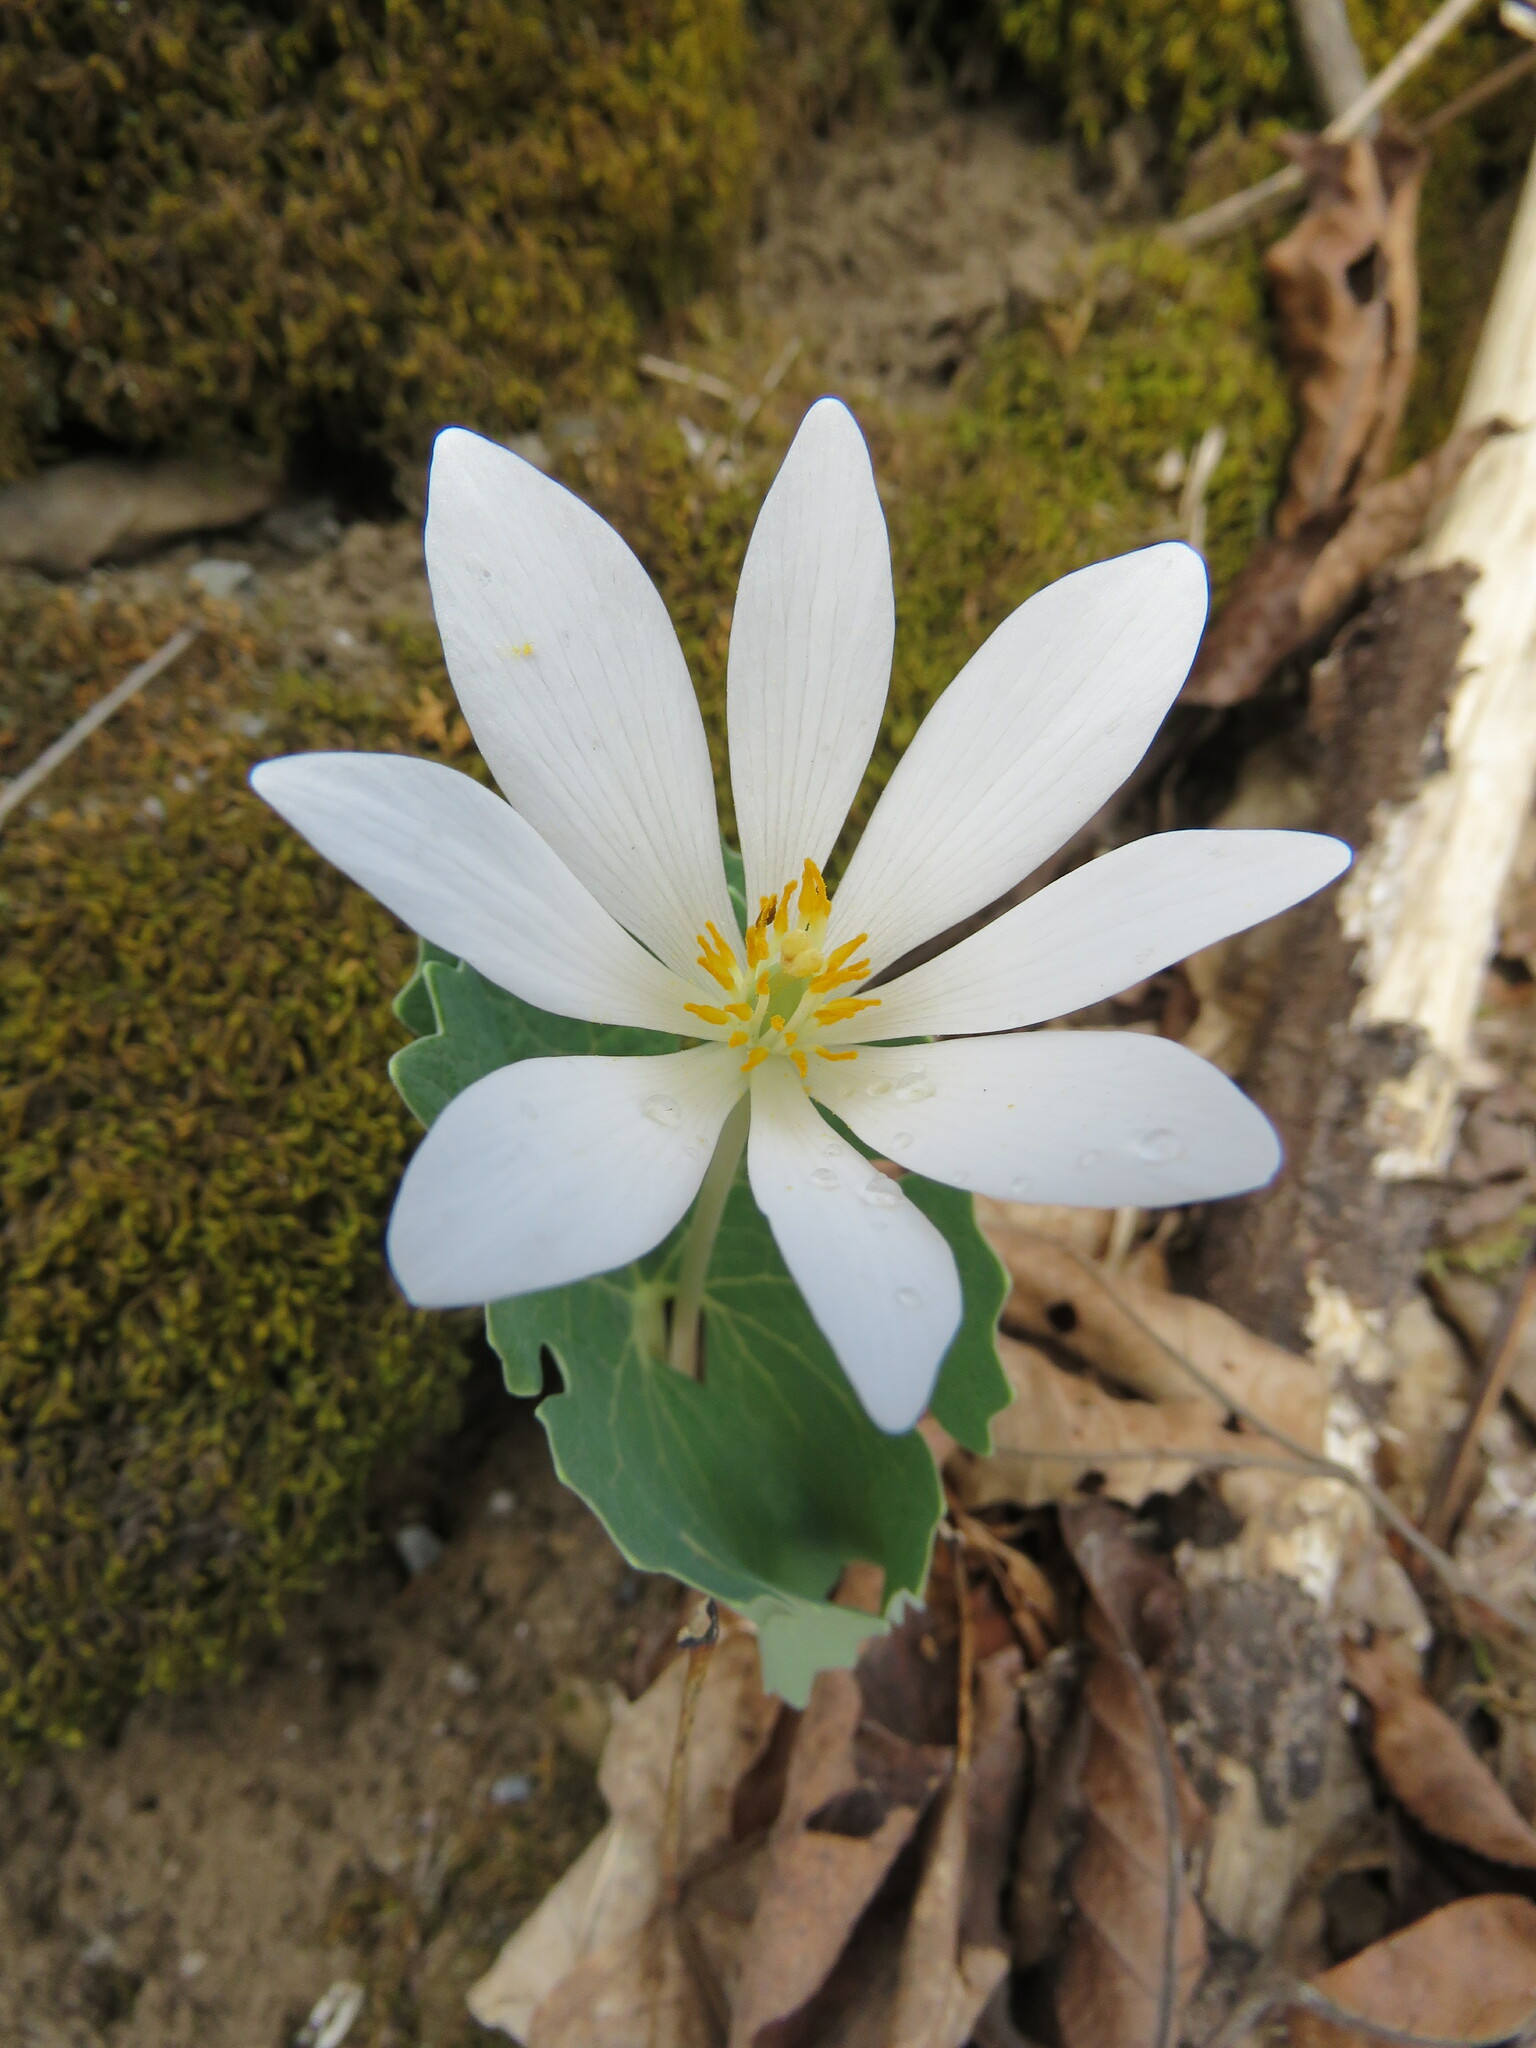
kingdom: Plantae
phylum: Tracheophyta
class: Magnoliopsida
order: Ranunculales
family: Papaveraceae
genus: Sanguinaria
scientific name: Sanguinaria canadensis
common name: Bloodroot
